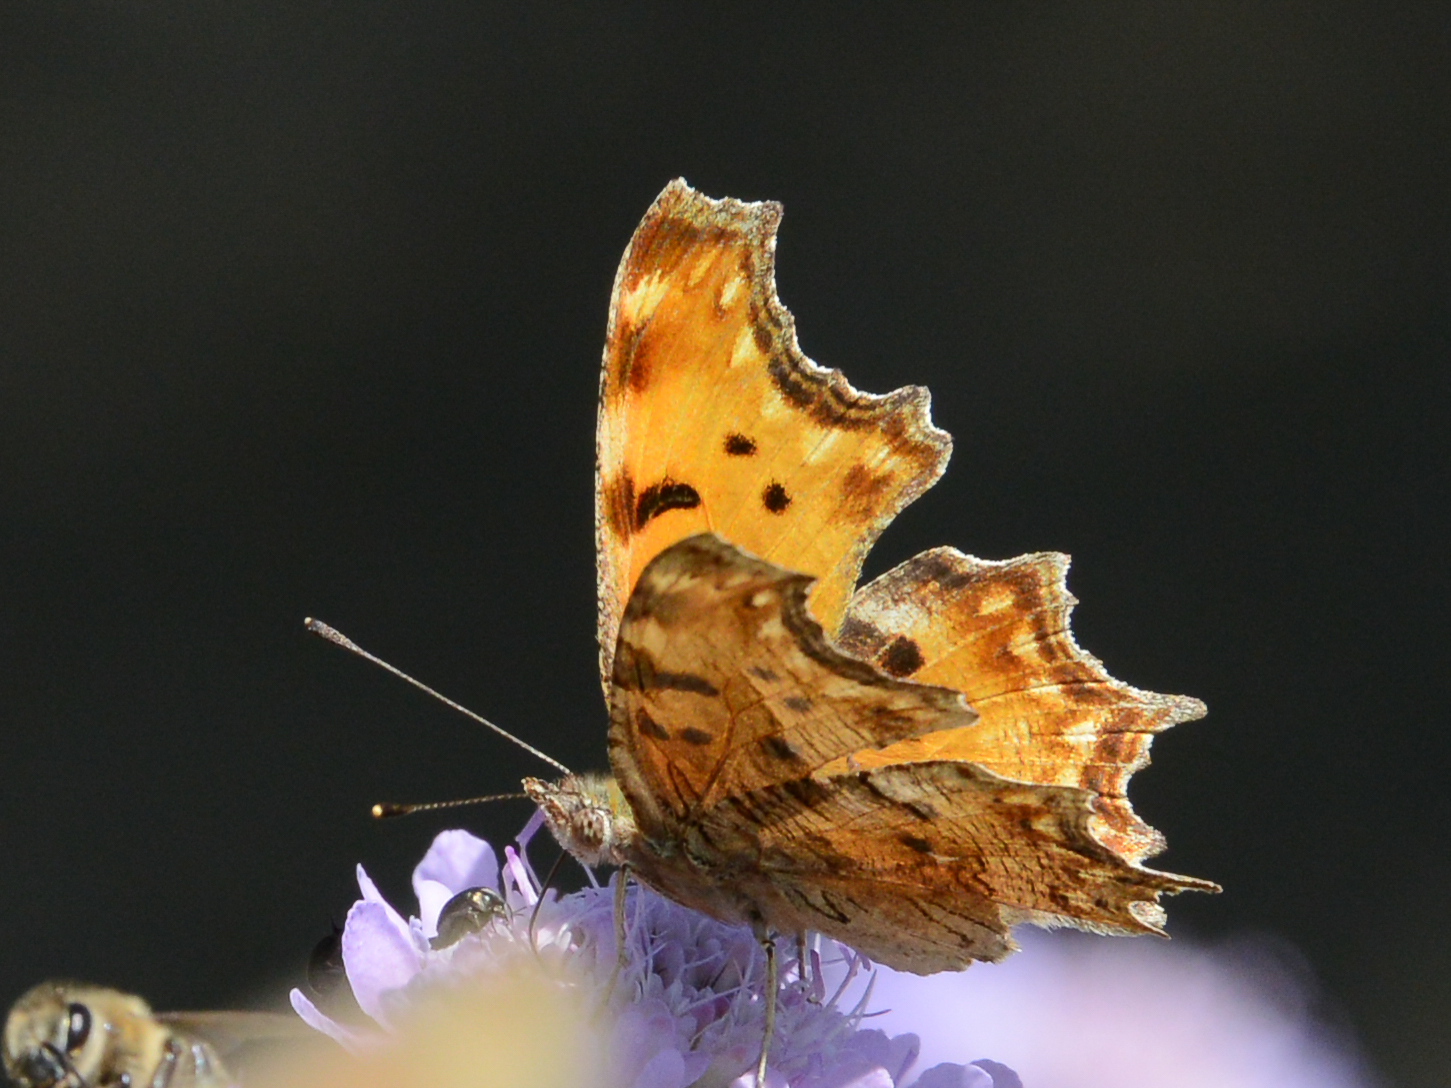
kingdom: Animalia
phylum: Arthropoda
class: Insecta
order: Lepidoptera
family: Nymphalidae
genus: Polygonia
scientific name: Polygonia egea
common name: Southern comma
